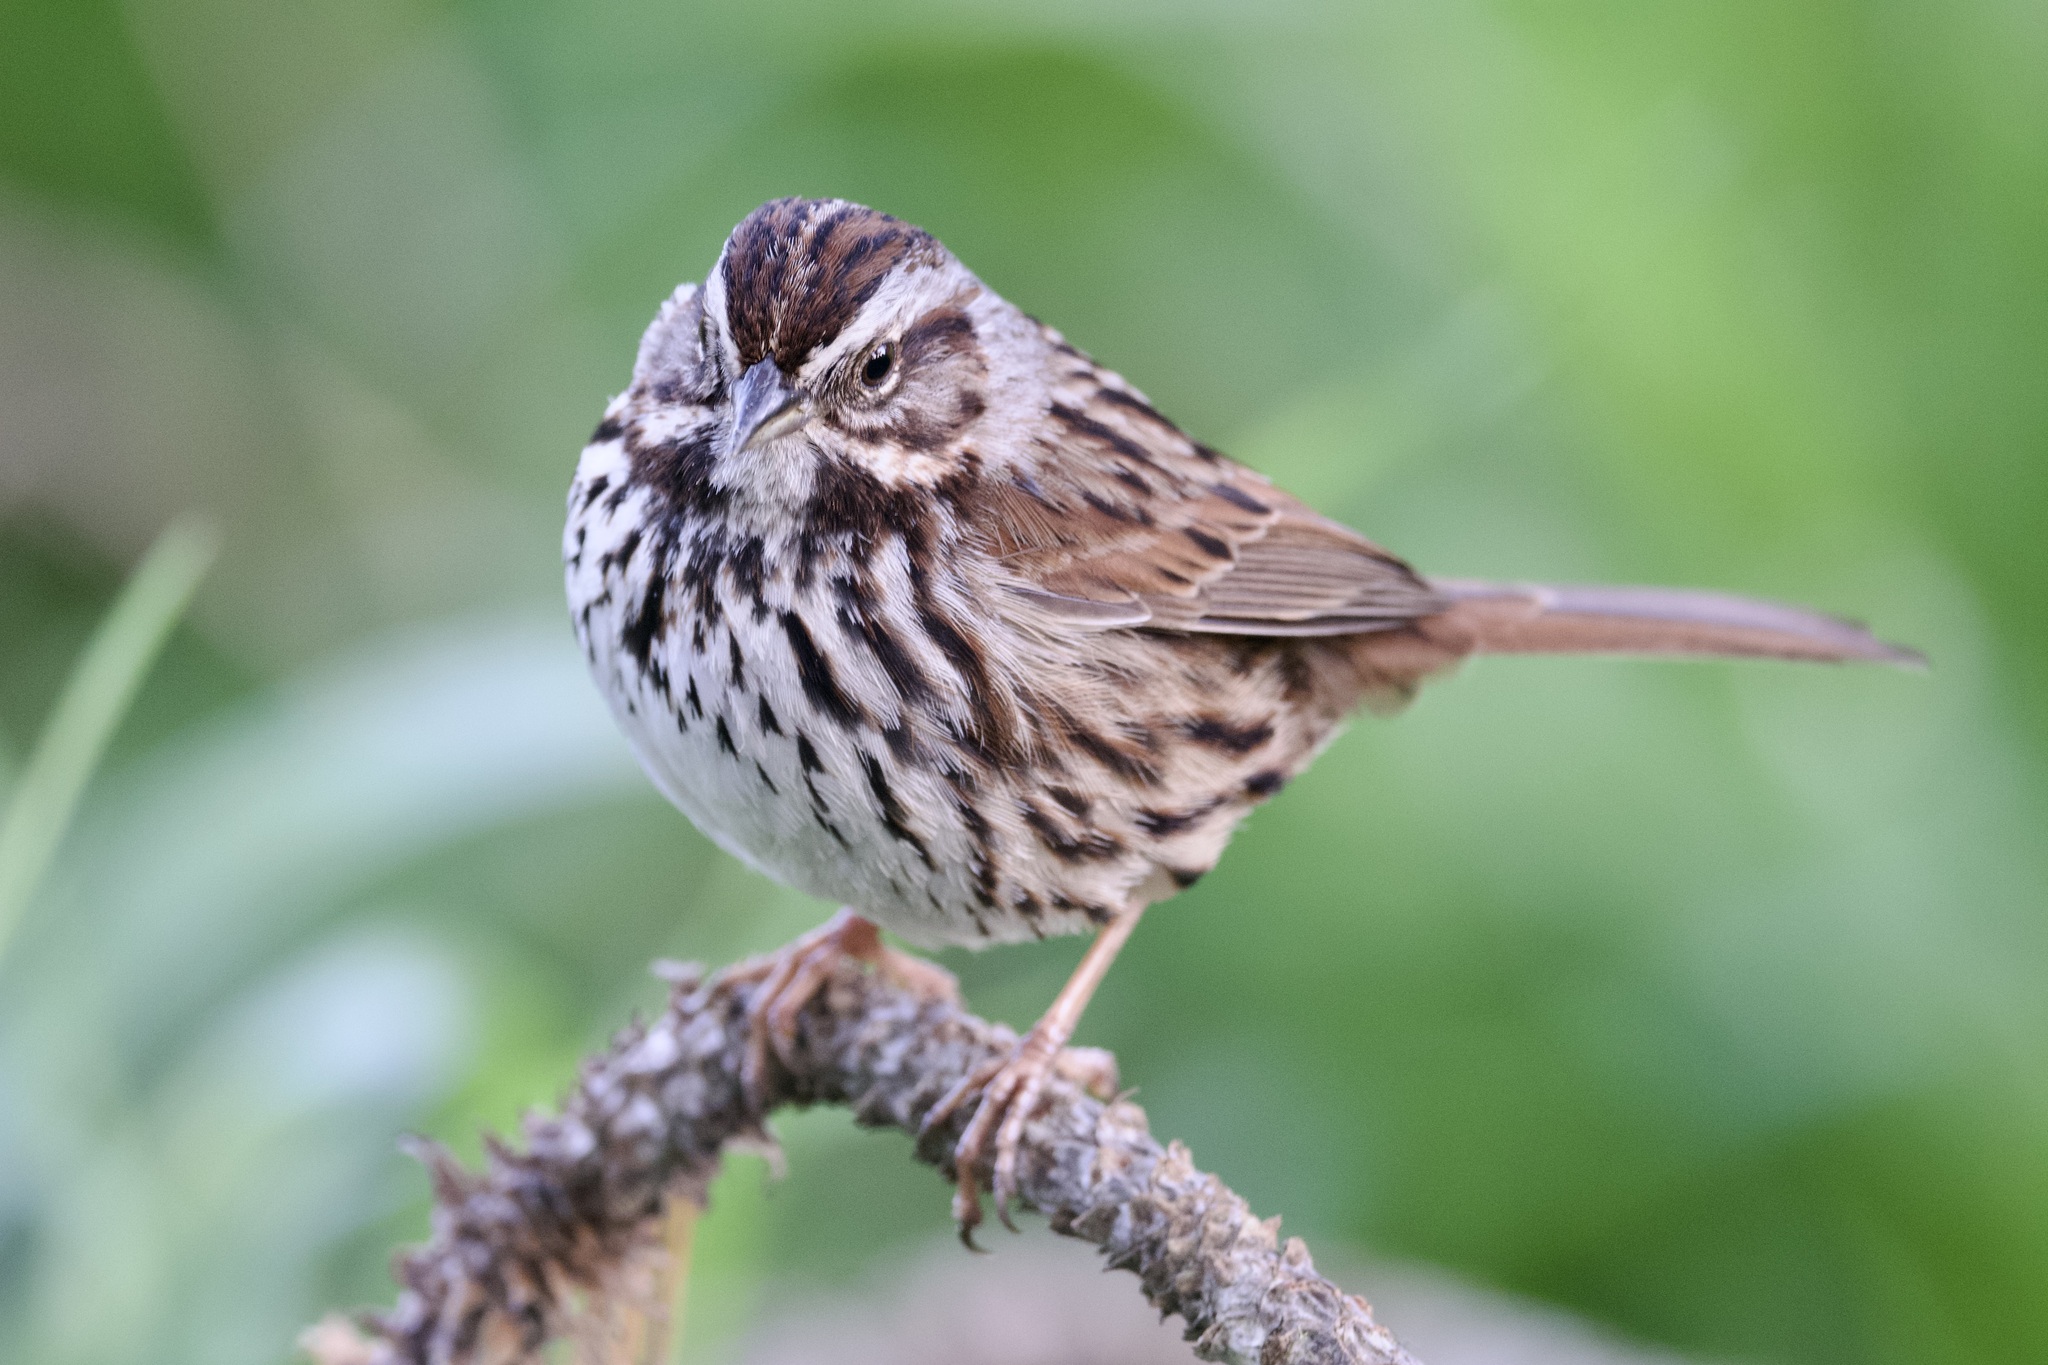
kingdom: Animalia
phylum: Chordata
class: Aves
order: Passeriformes
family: Passerellidae
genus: Melospiza
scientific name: Melospiza melodia
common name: Song sparrow
